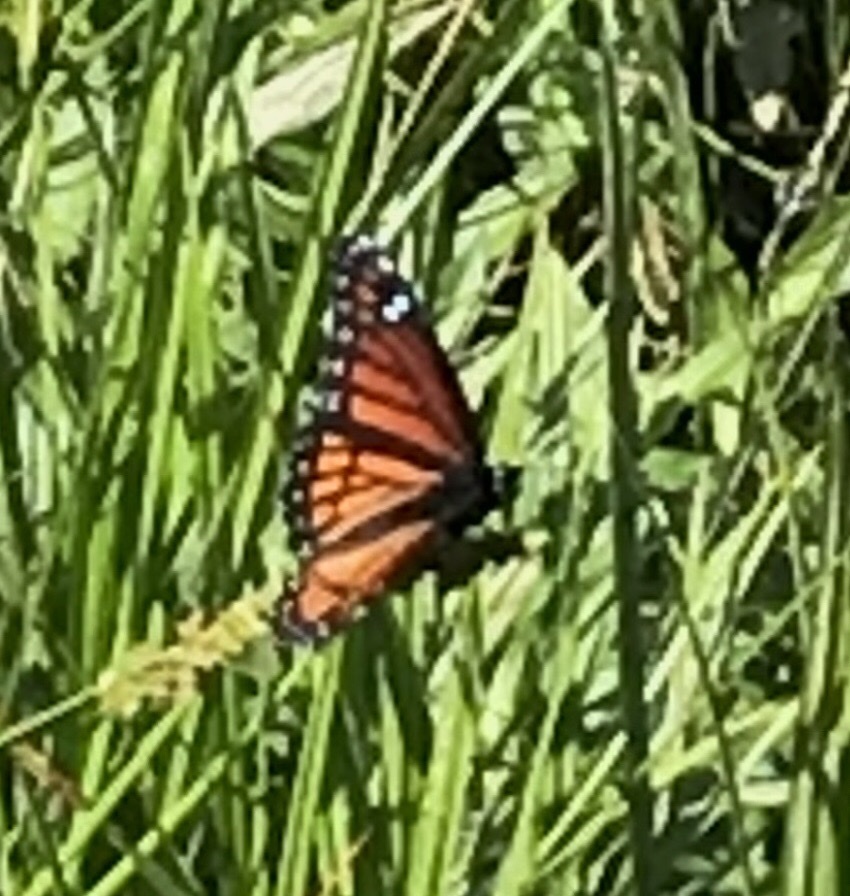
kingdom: Animalia
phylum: Arthropoda
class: Insecta
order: Lepidoptera
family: Nymphalidae
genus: Limenitis
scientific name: Limenitis archippus
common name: Viceroy
